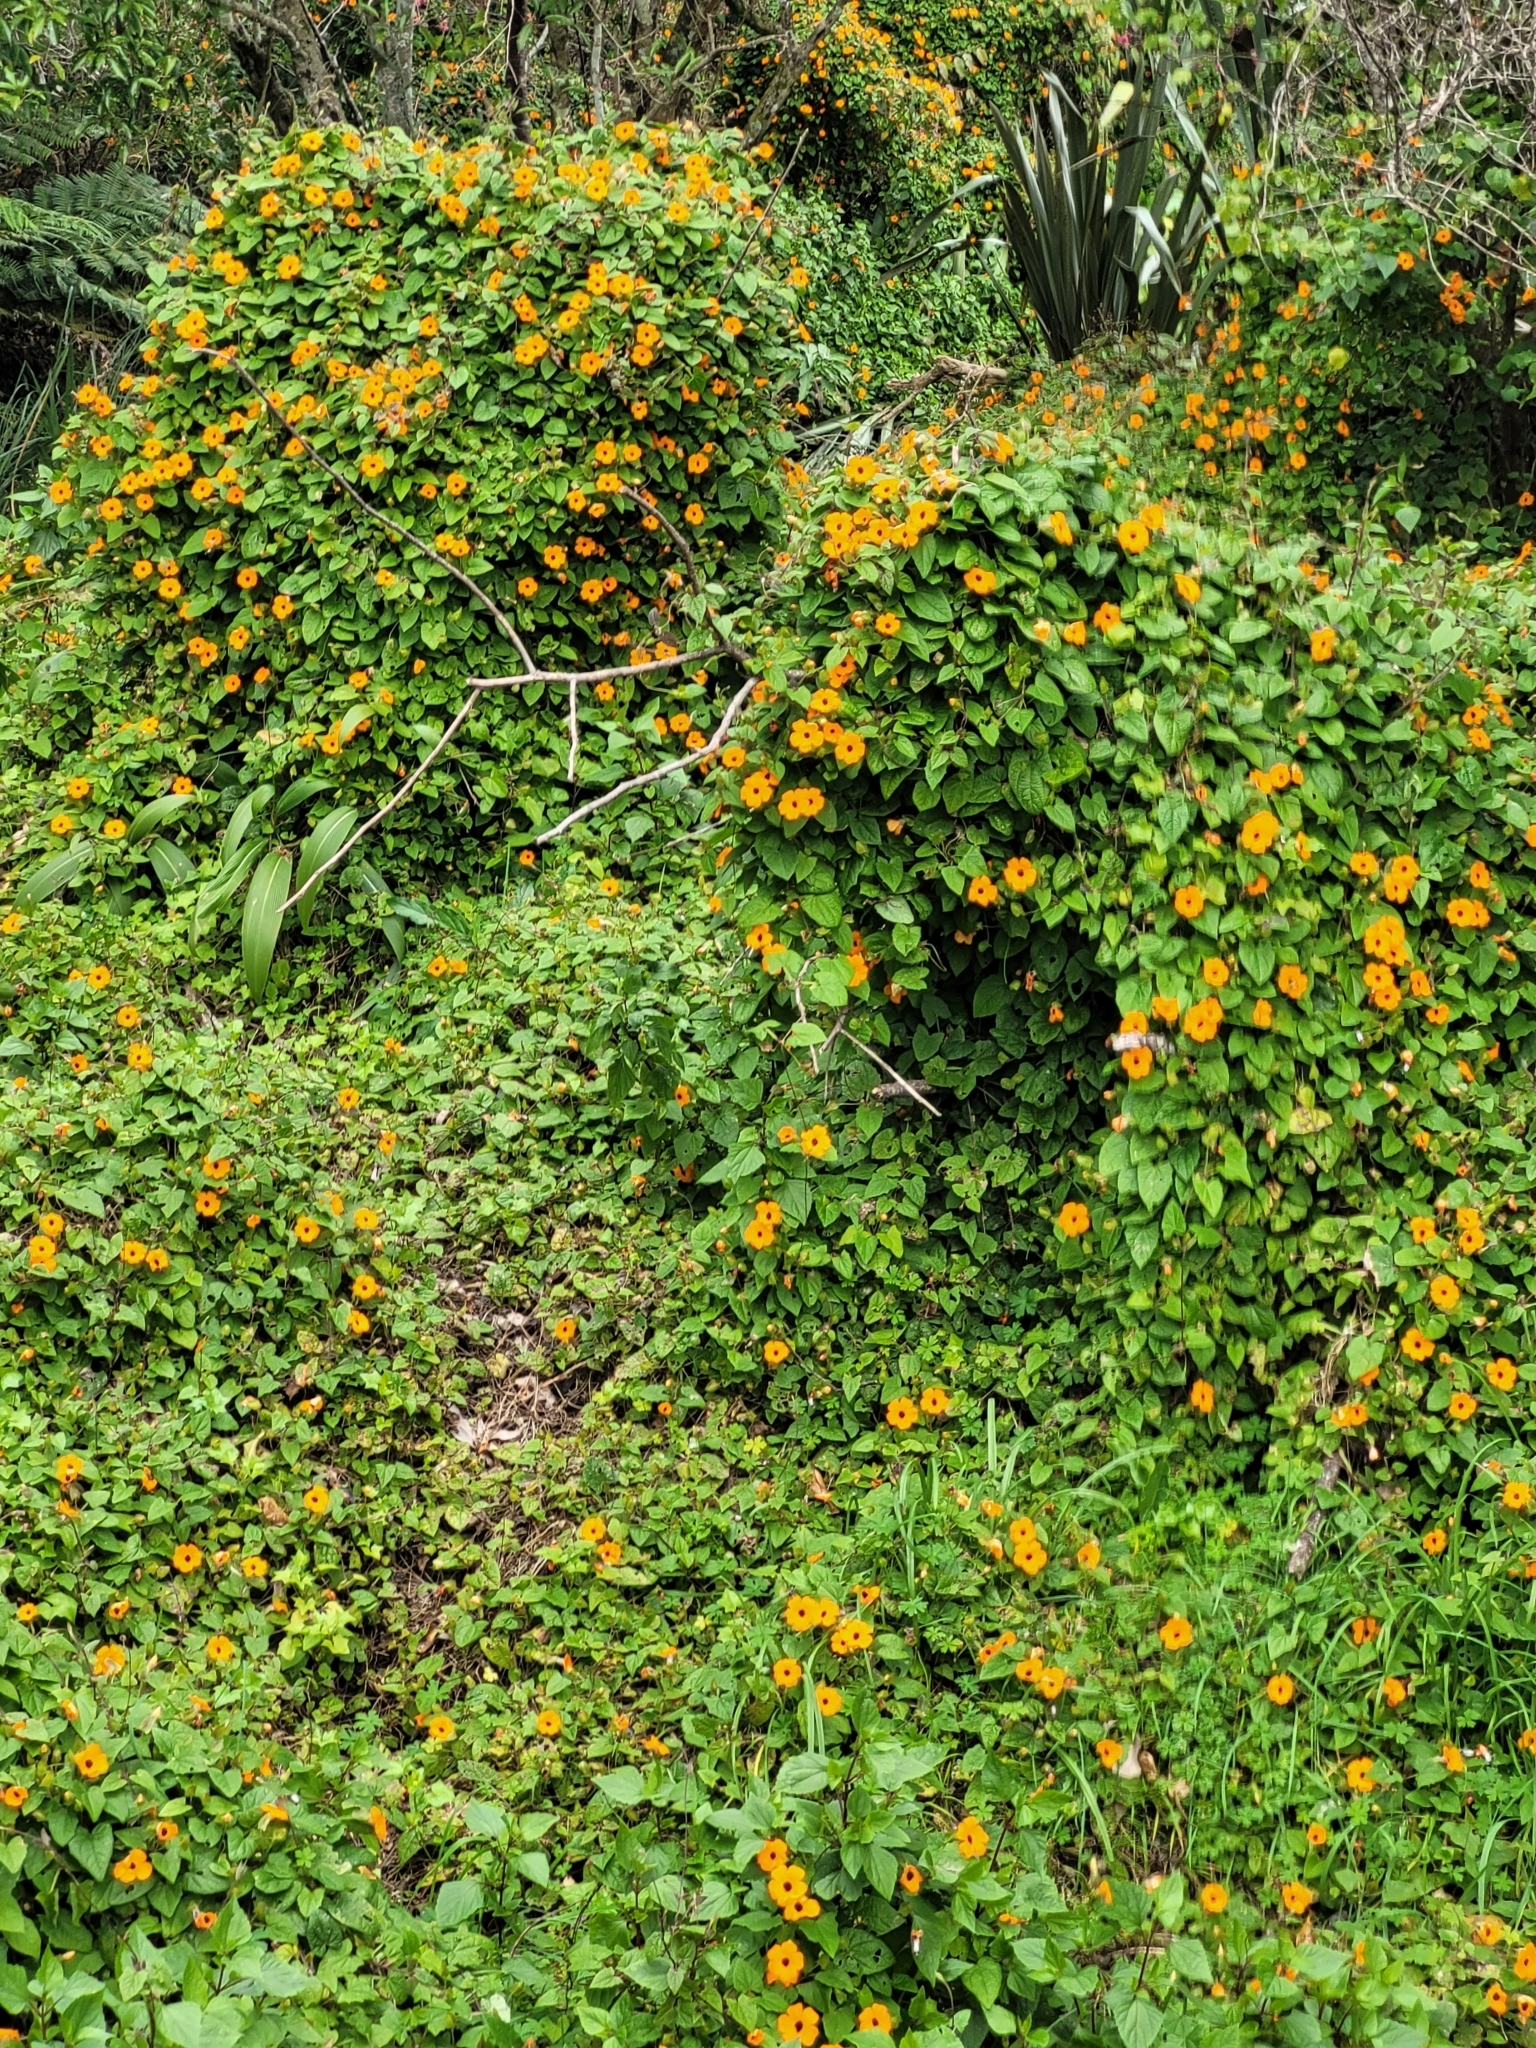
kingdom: Plantae
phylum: Tracheophyta
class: Magnoliopsida
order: Lamiales
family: Acanthaceae
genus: Thunbergia
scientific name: Thunbergia alata
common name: Blackeyed susan vine
